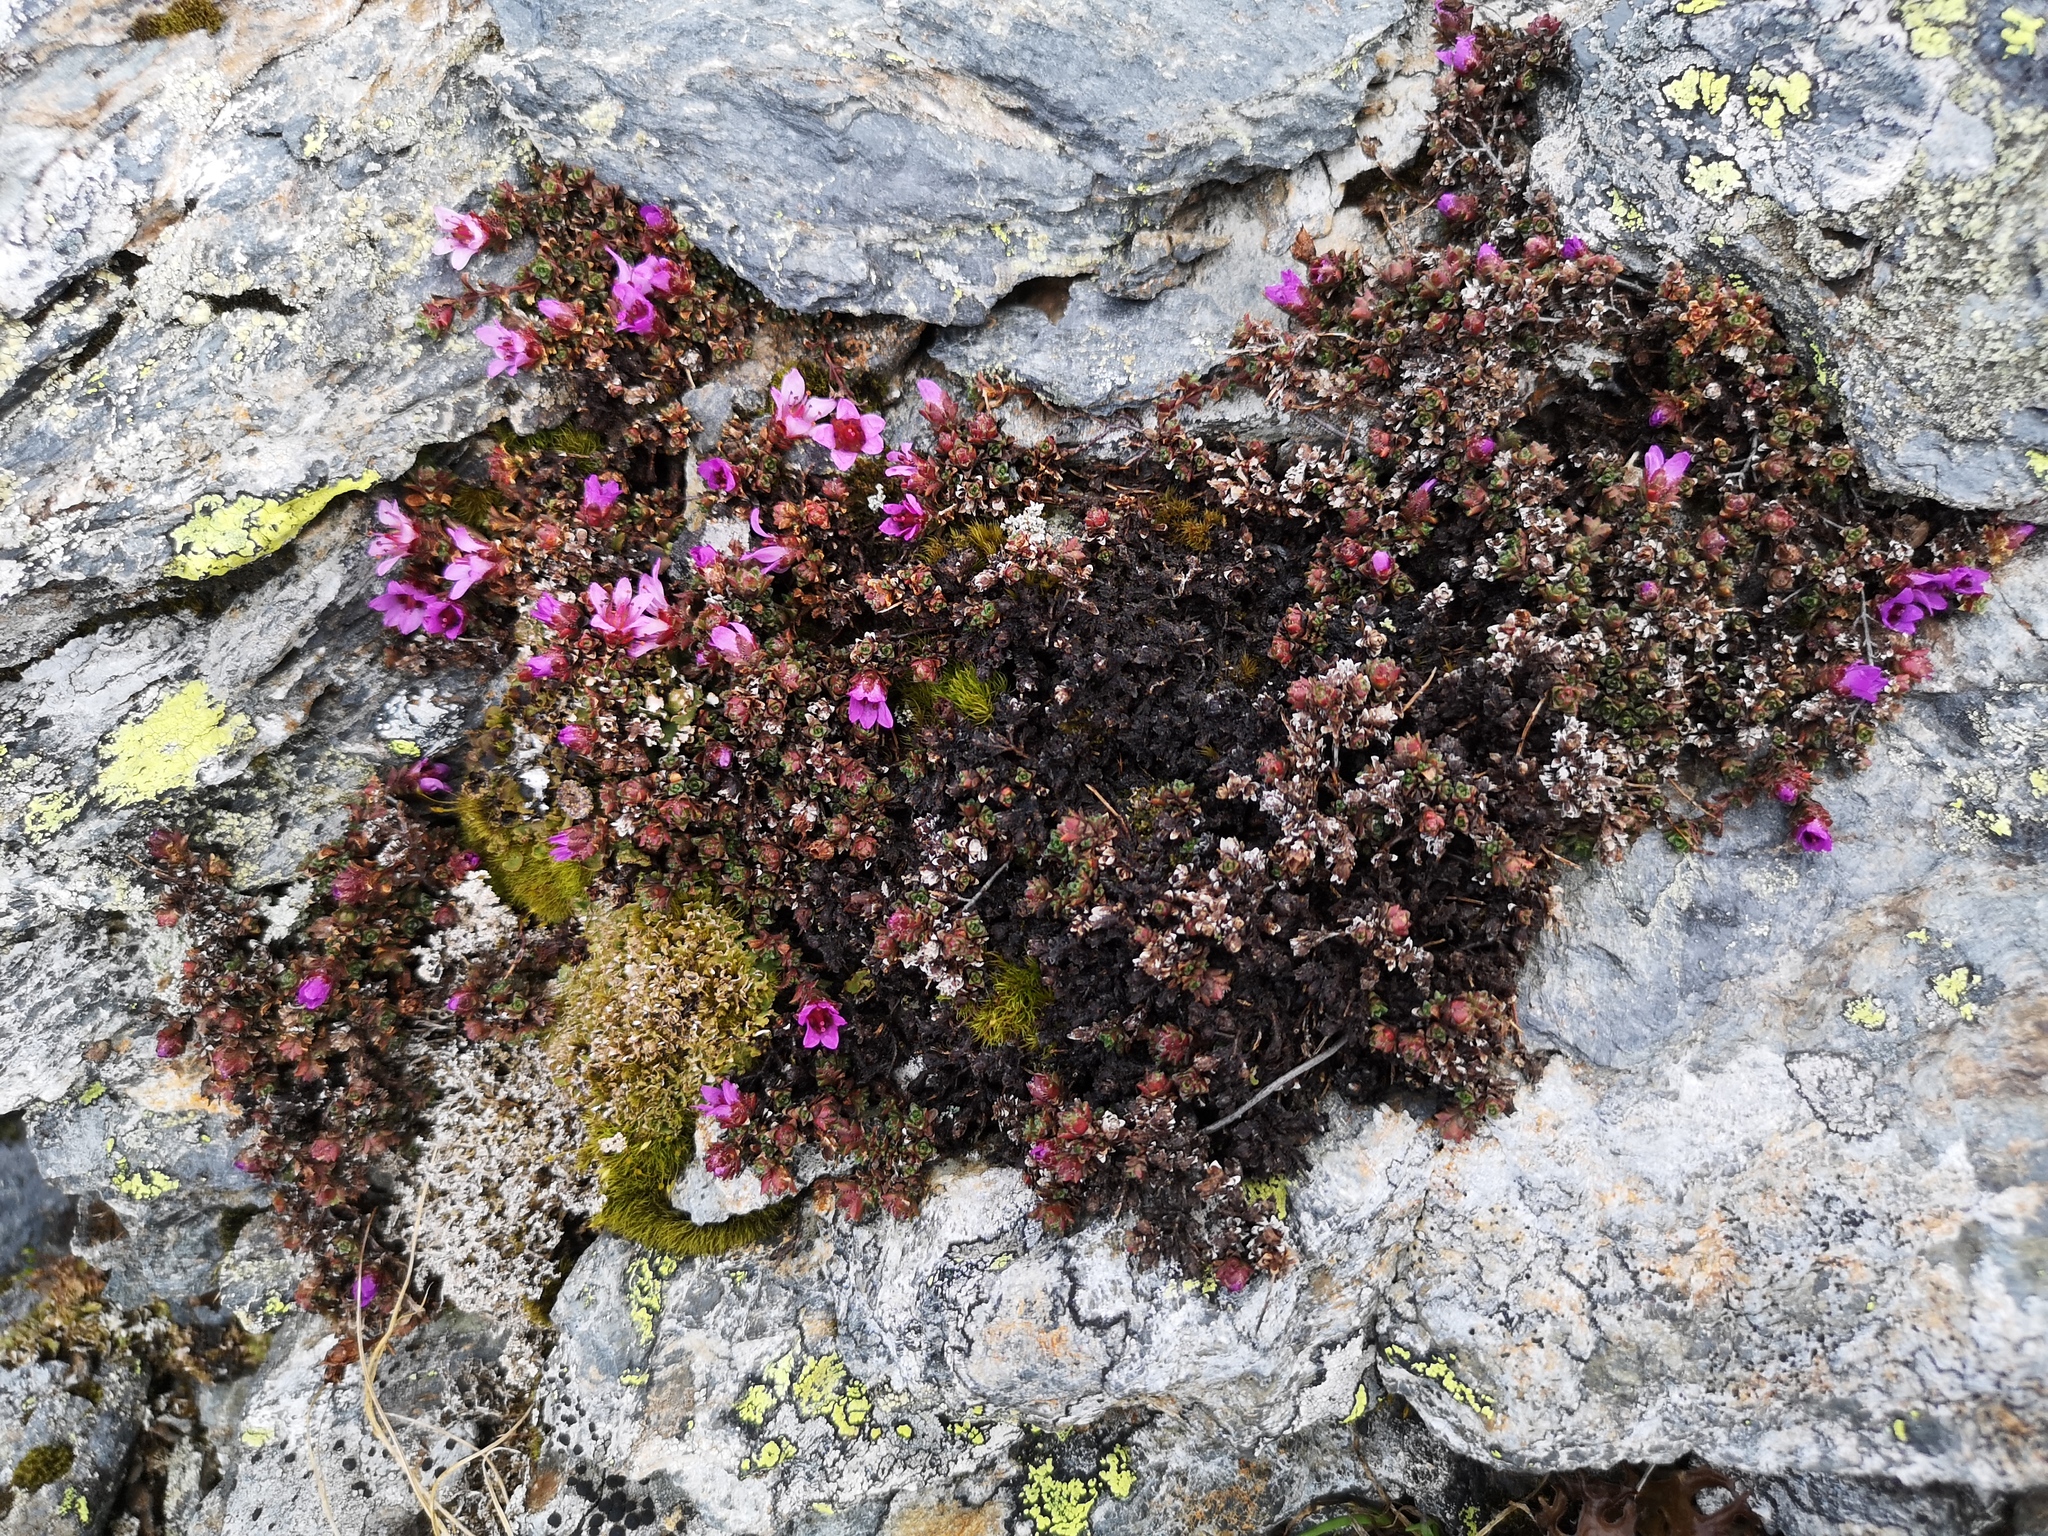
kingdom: Plantae
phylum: Tracheophyta
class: Magnoliopsida
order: Saxifragales
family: Saxifragaceae
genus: Saxifraga
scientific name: Saxifraga oppositifolia
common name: Purple saxifrage
